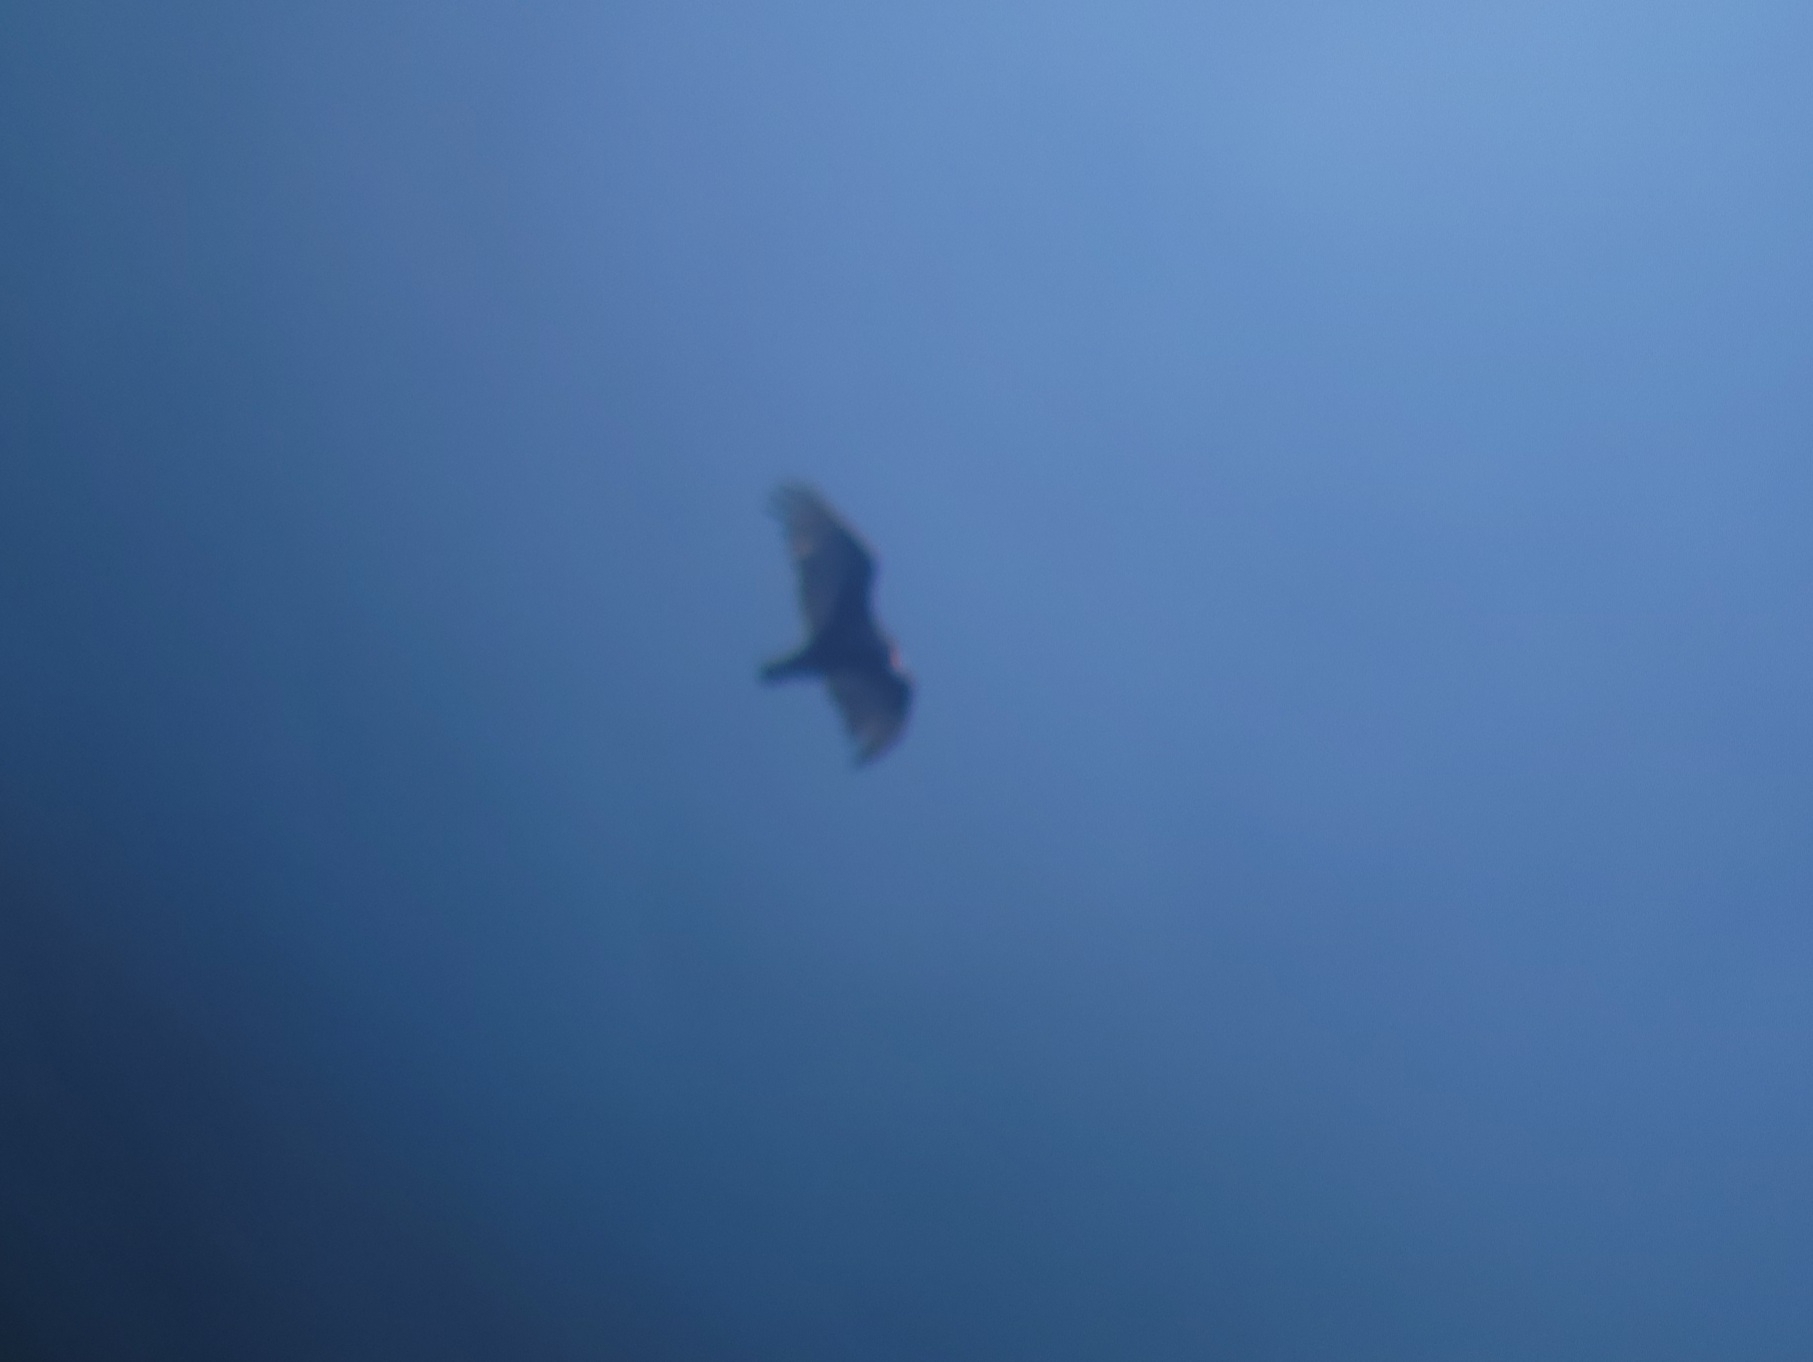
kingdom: Animalia
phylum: Chordata
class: Aves
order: Accipitriformes
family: Cathartidae
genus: Cathartes
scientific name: Cathartes aura
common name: Turkey vulture
